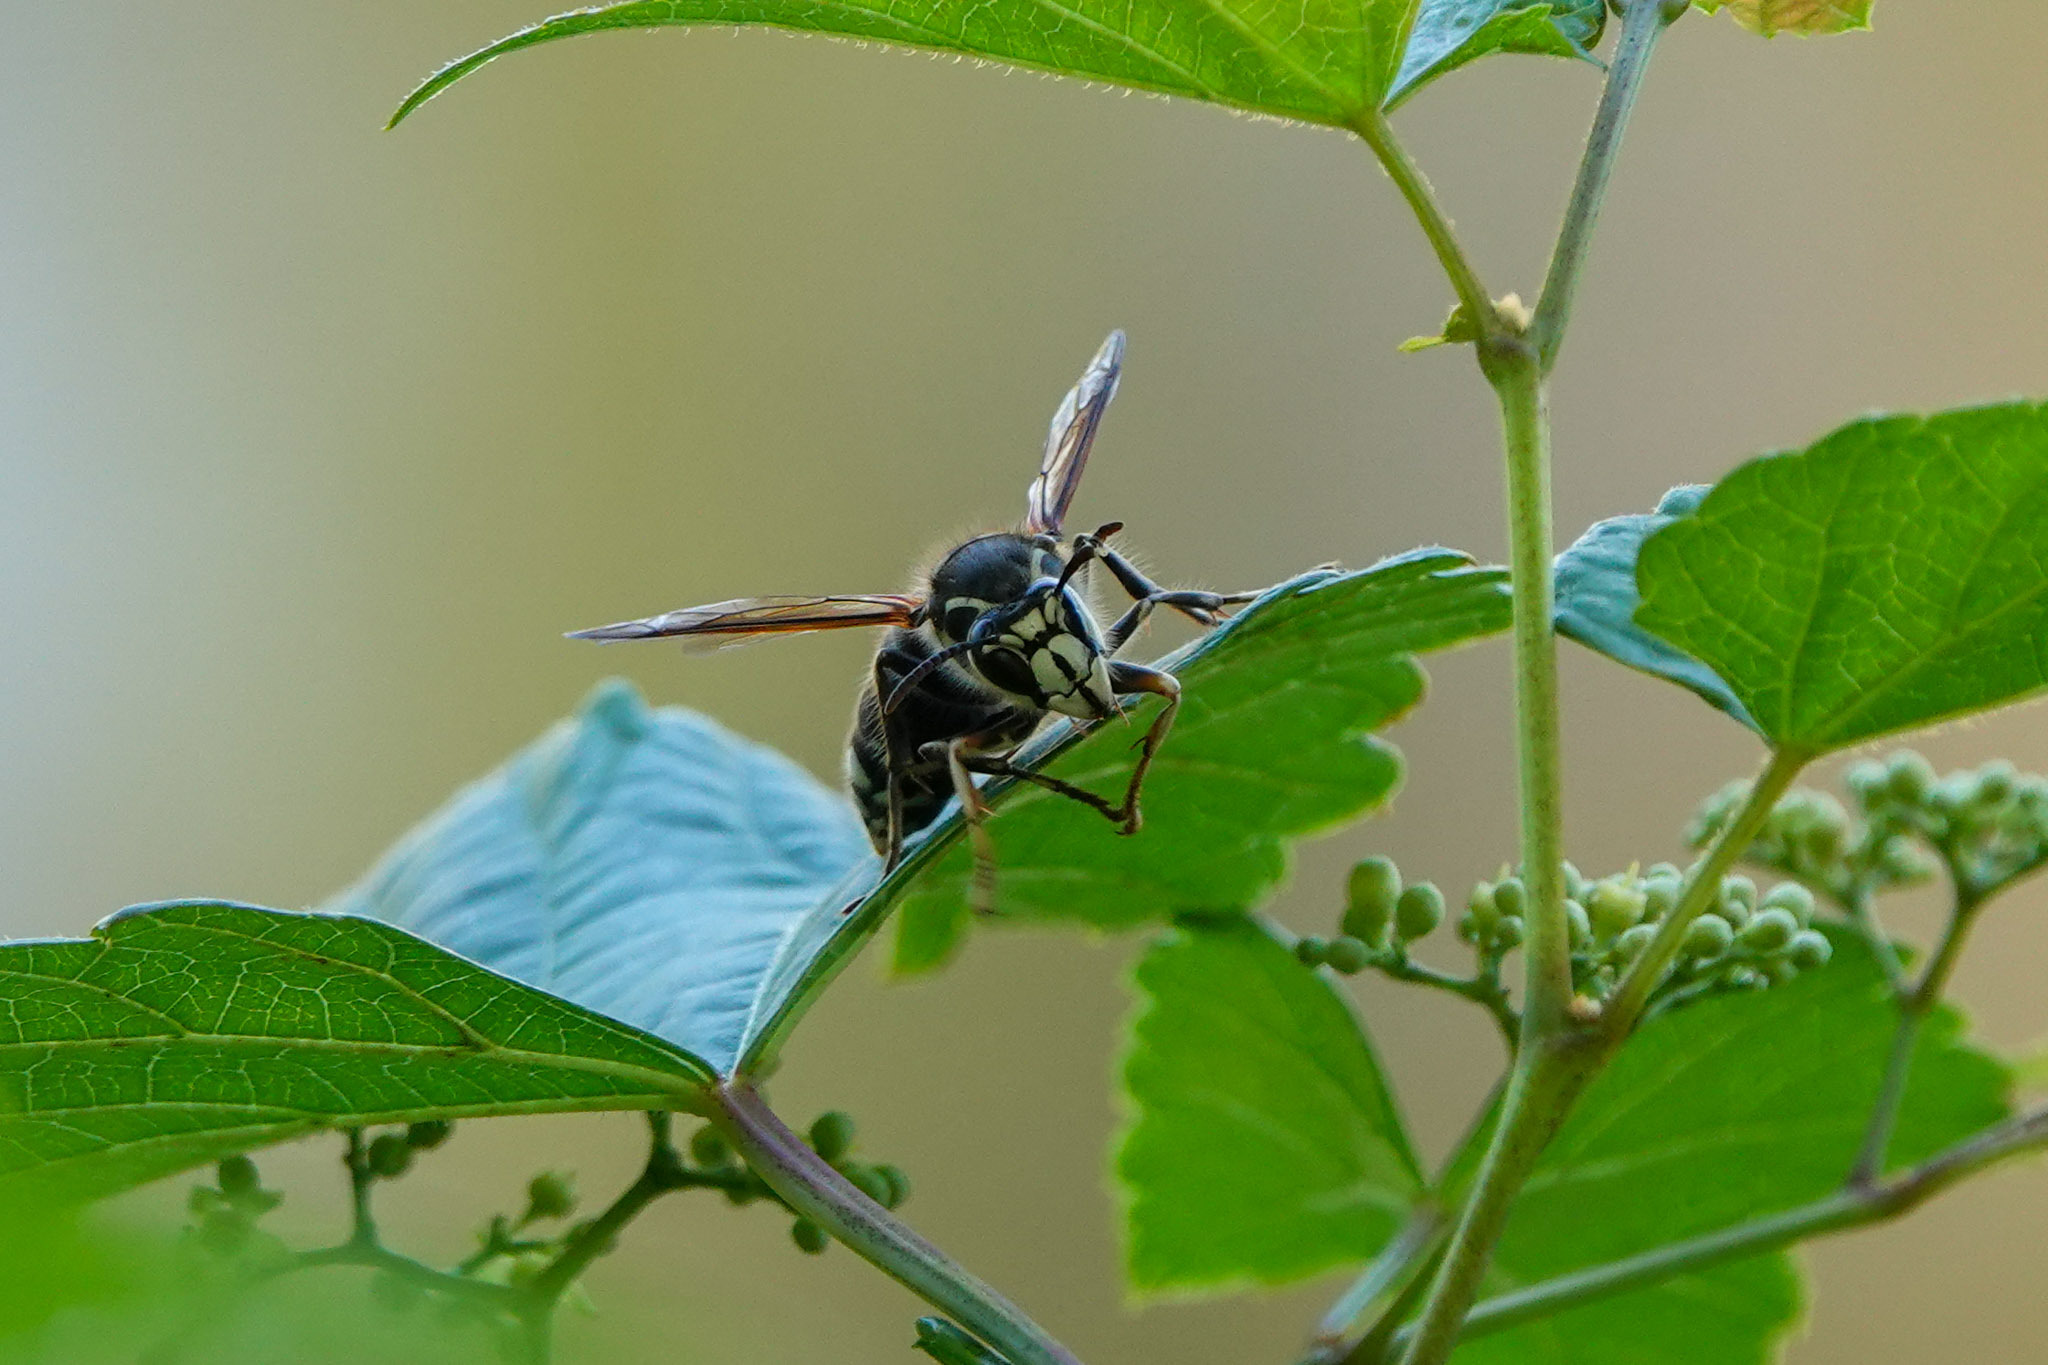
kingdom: Animalia
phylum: Arthropoda
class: Insecta
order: Hymenoptera
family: Vespidae
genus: Dolichovespula
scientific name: Dolichovespula maculata
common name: Bald-faced hornet
